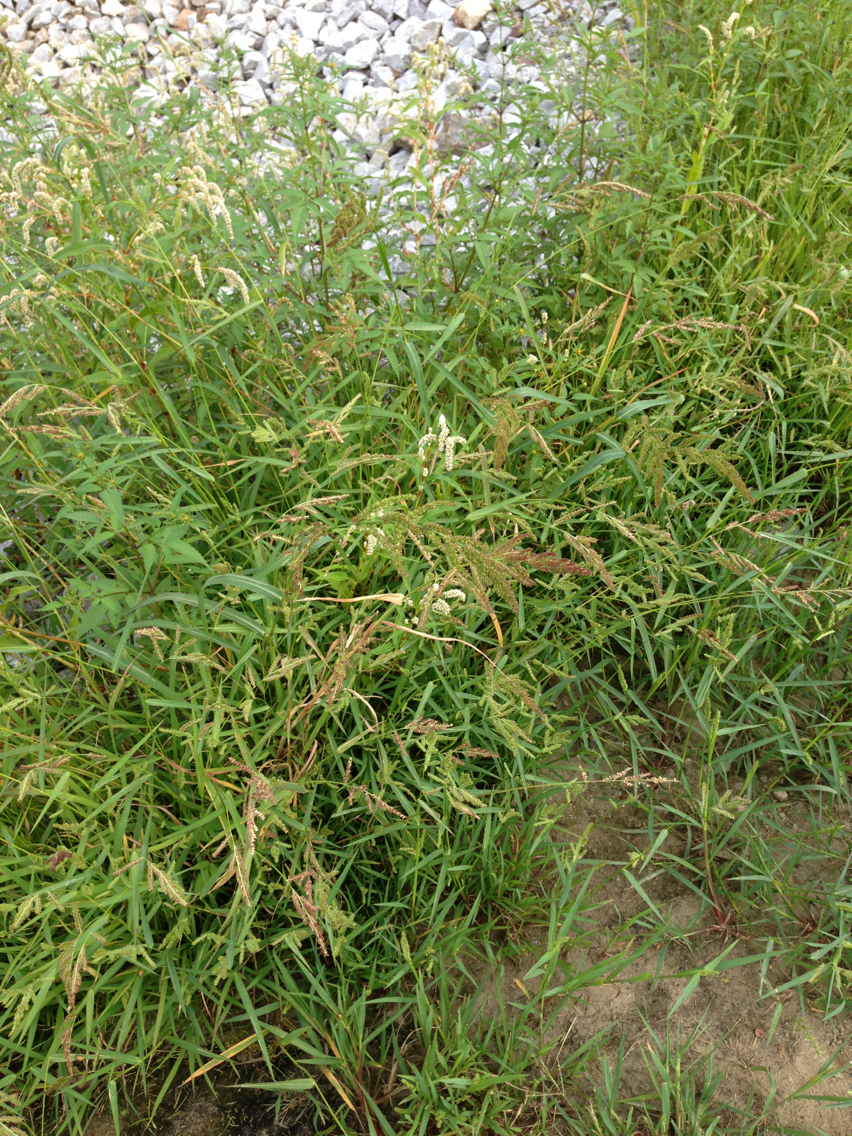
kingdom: Plantae
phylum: Tracheophyta
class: Liliopsida
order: Poales
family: Poaceae
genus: Echinochloa
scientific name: Echinochloa crus-galli
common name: Cockspur
